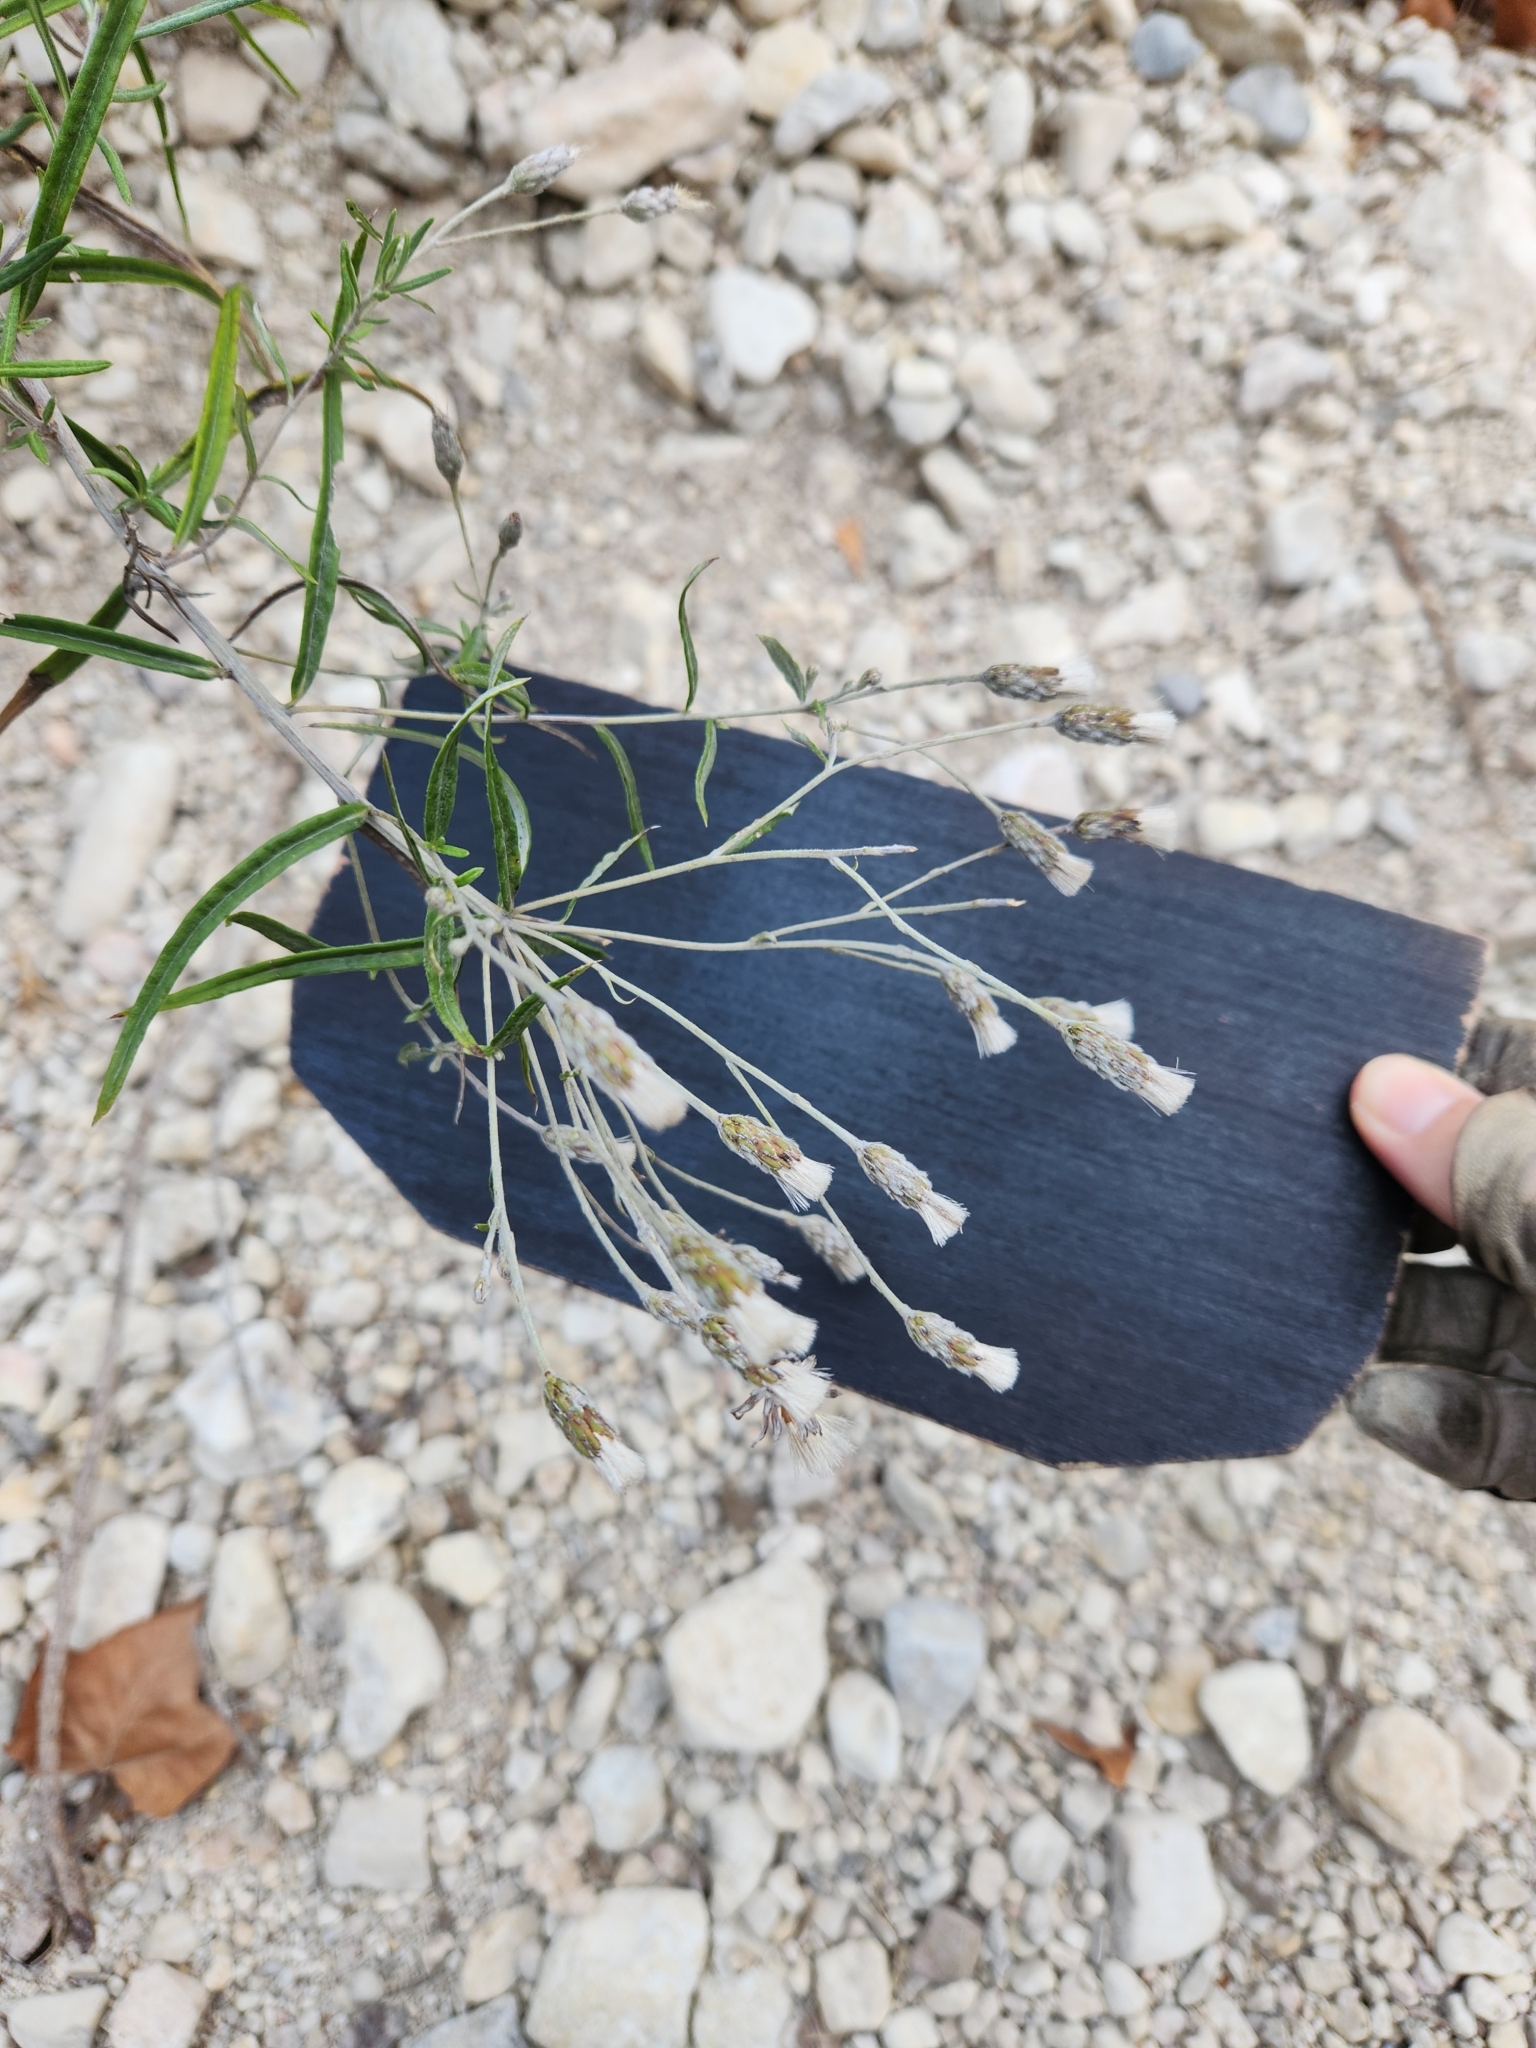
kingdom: Plantae
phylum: Tracheophyta
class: Magnoliopsida
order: Asterales
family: Asteraceae
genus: Vernonia
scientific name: Vernonia lindheimeri
